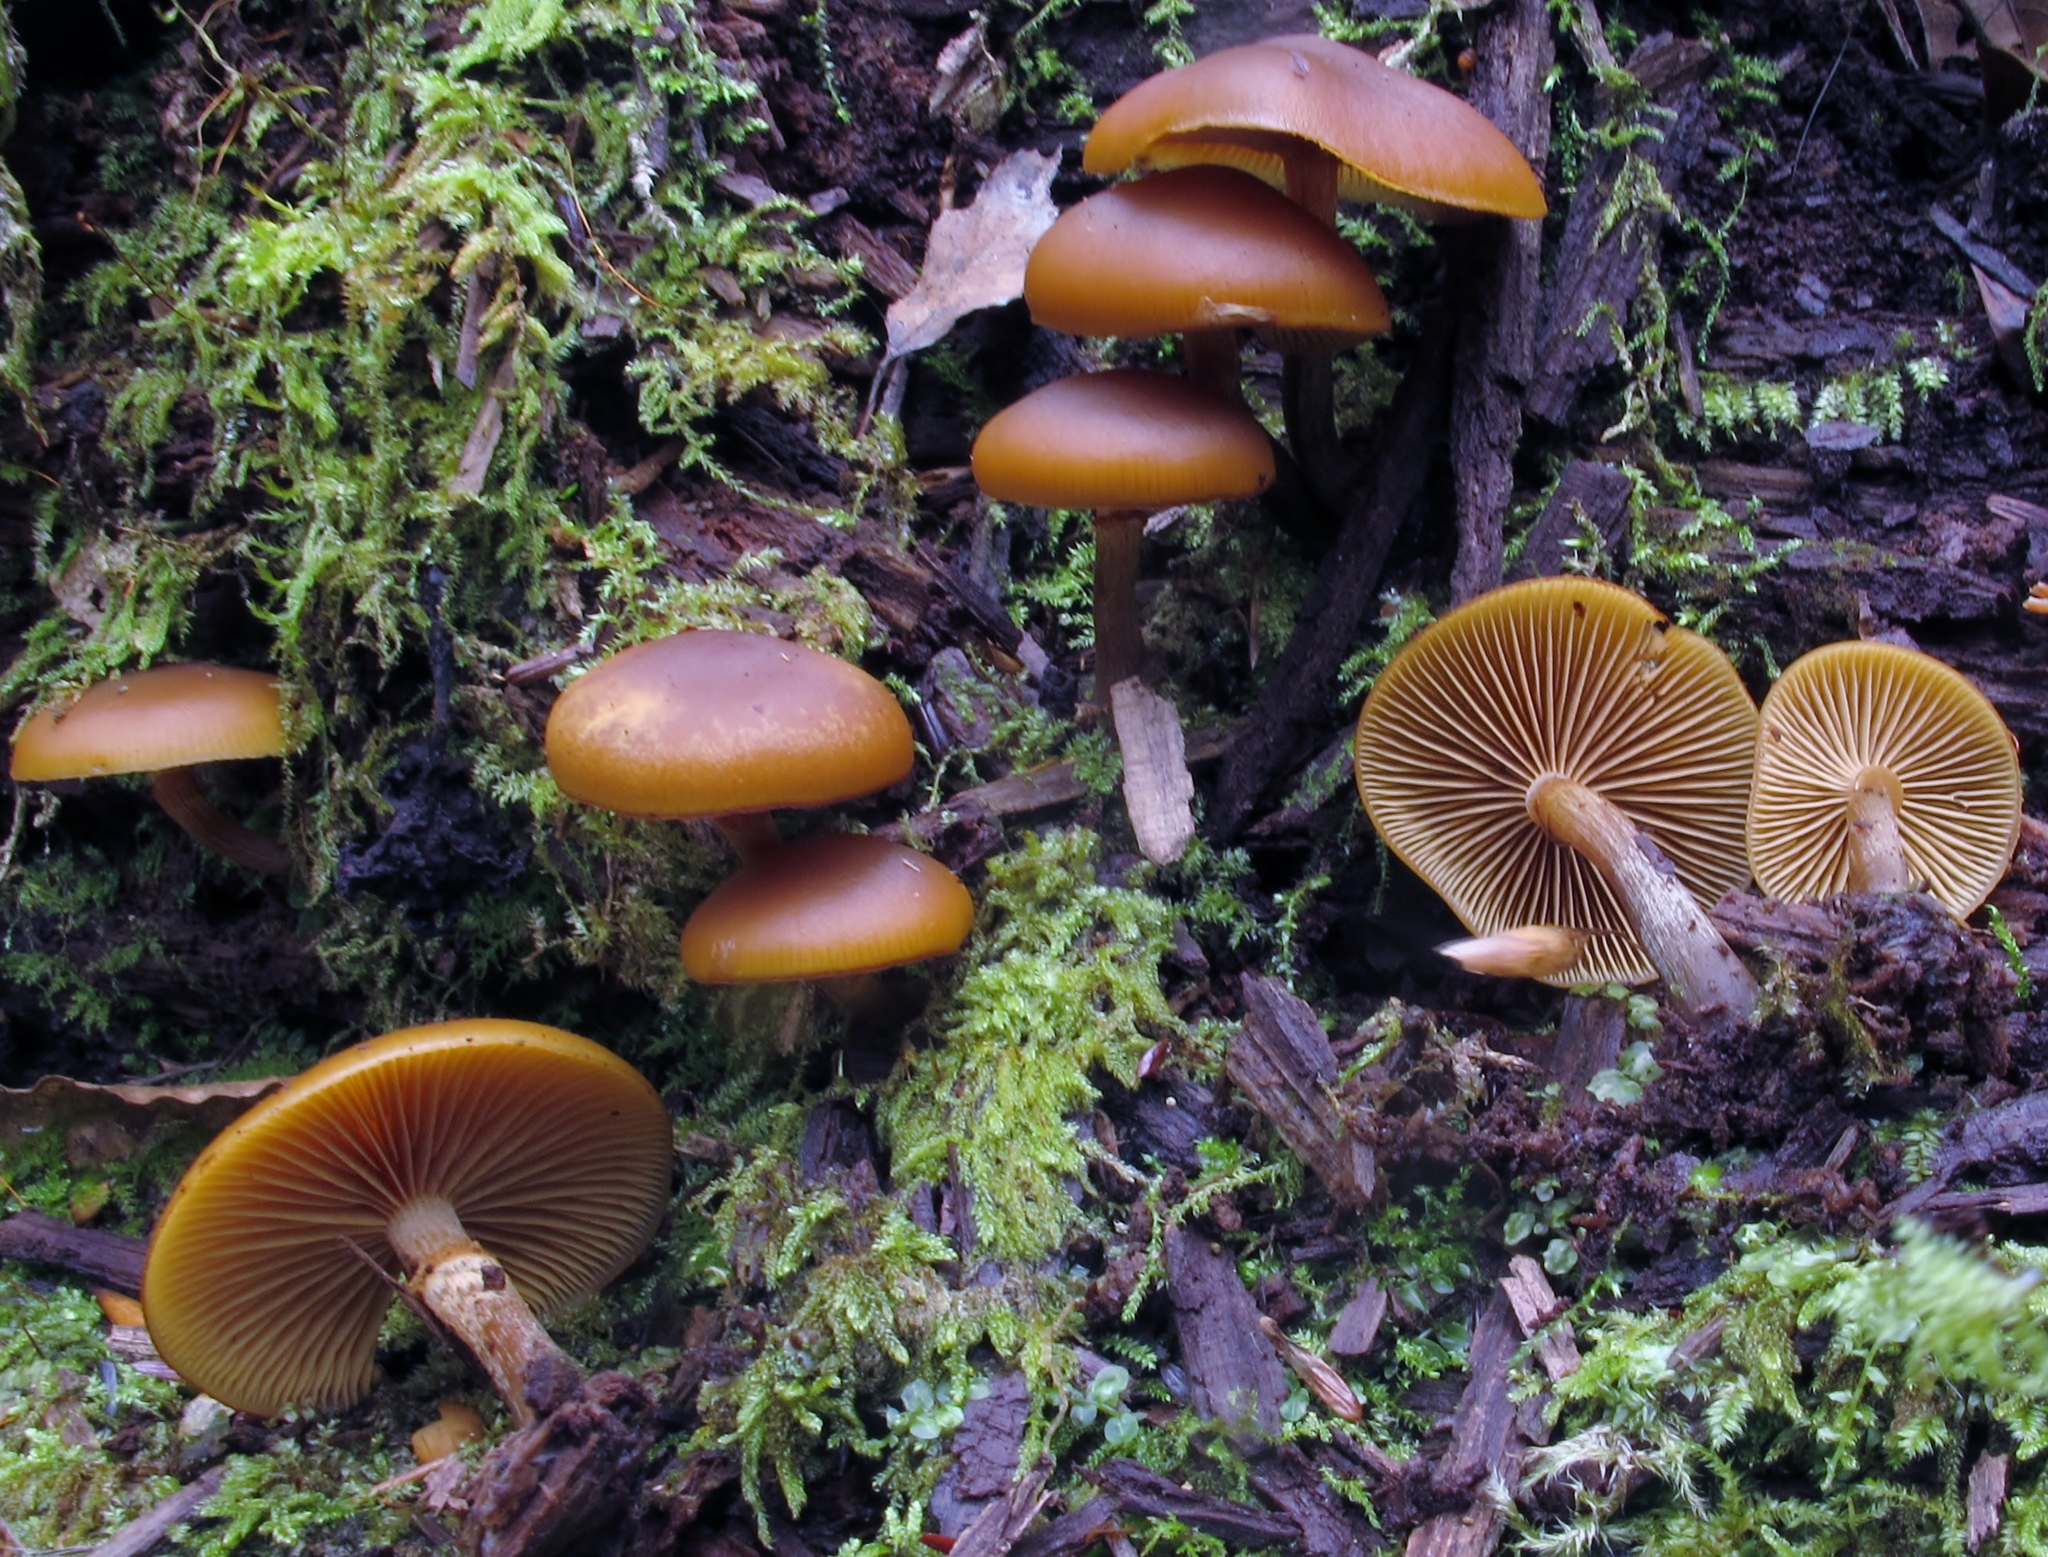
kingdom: Fungi
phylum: Basidiomycota
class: Agaricomycetes
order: Agaricales
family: Hymenogastraceae
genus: Galerina
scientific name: Galerina marginata
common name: Funeral bell
